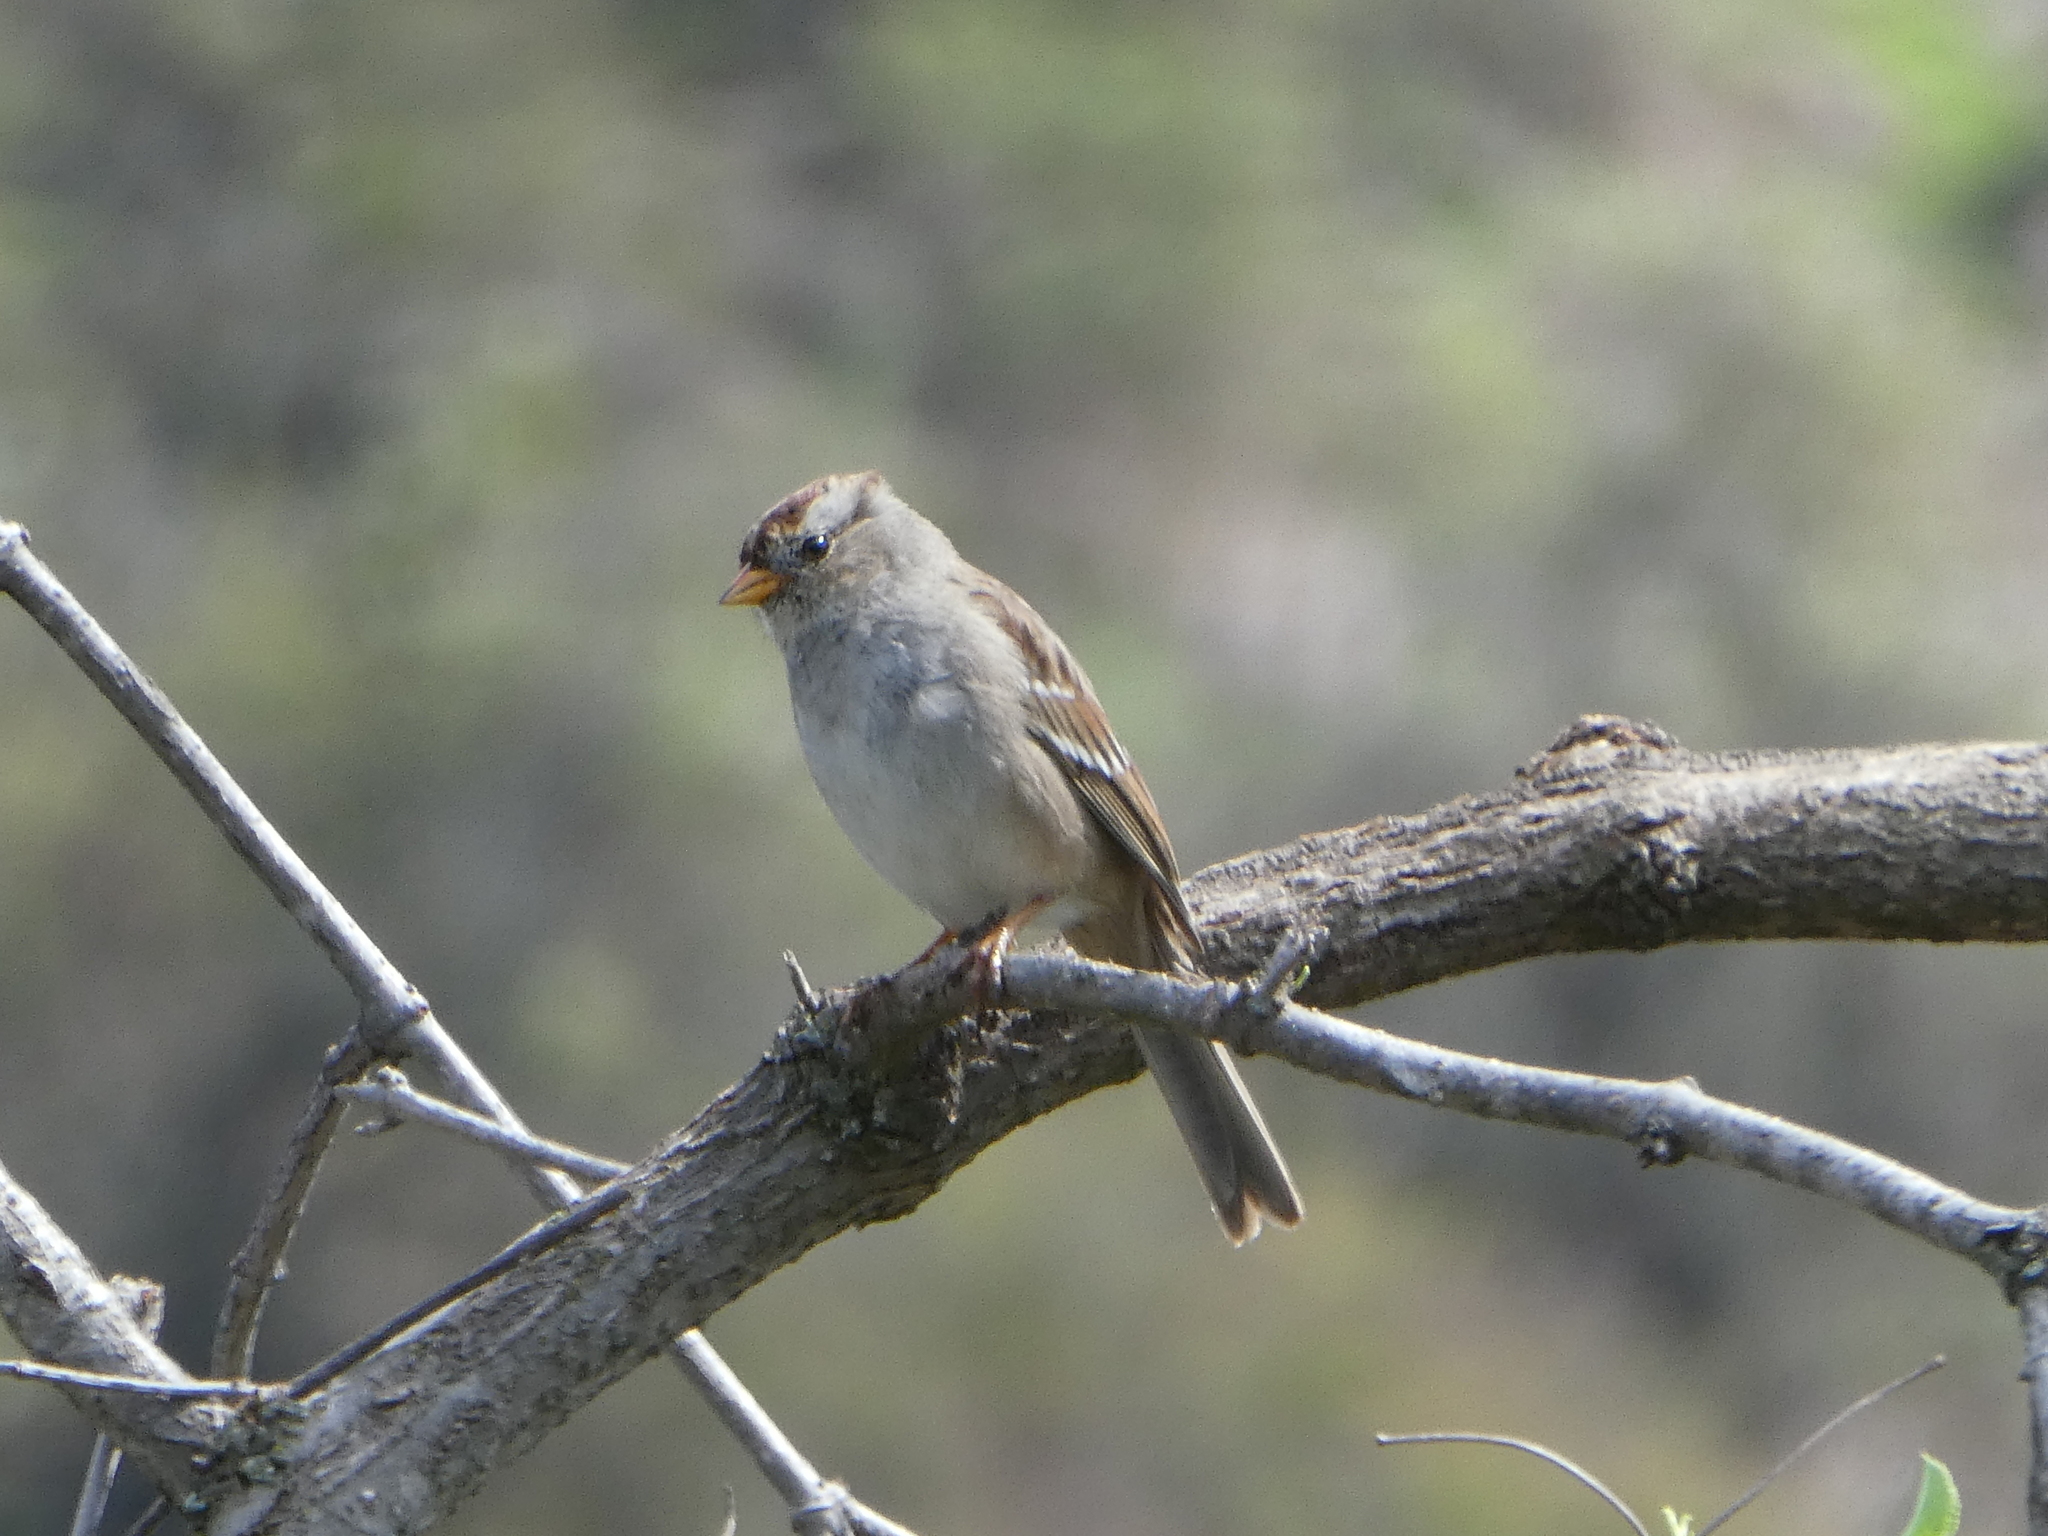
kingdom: Animalia
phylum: Chordata
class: Aves
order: Passeriformes
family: Passerellidae
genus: Zonotrichia
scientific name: Zonotrichia leucophrys
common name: White-crowned sparrow
